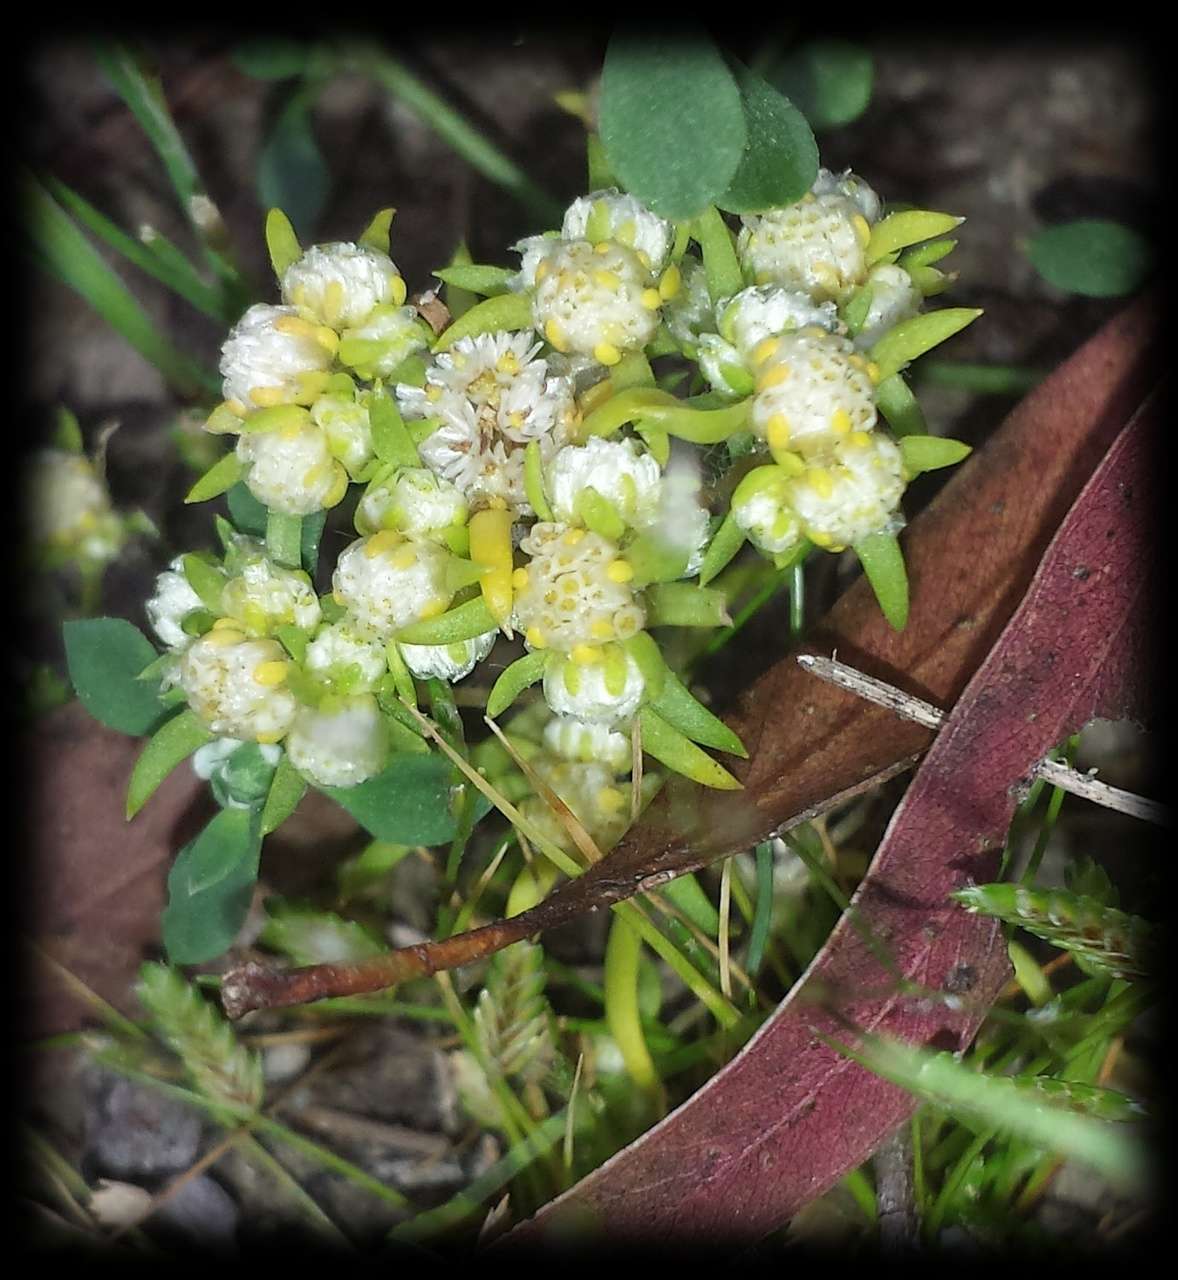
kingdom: Plantae
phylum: Tracheophyta
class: Magnoliopsida
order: Asterales
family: Asteraceae
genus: Siloxerus
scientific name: Siloxerus multiflorus
